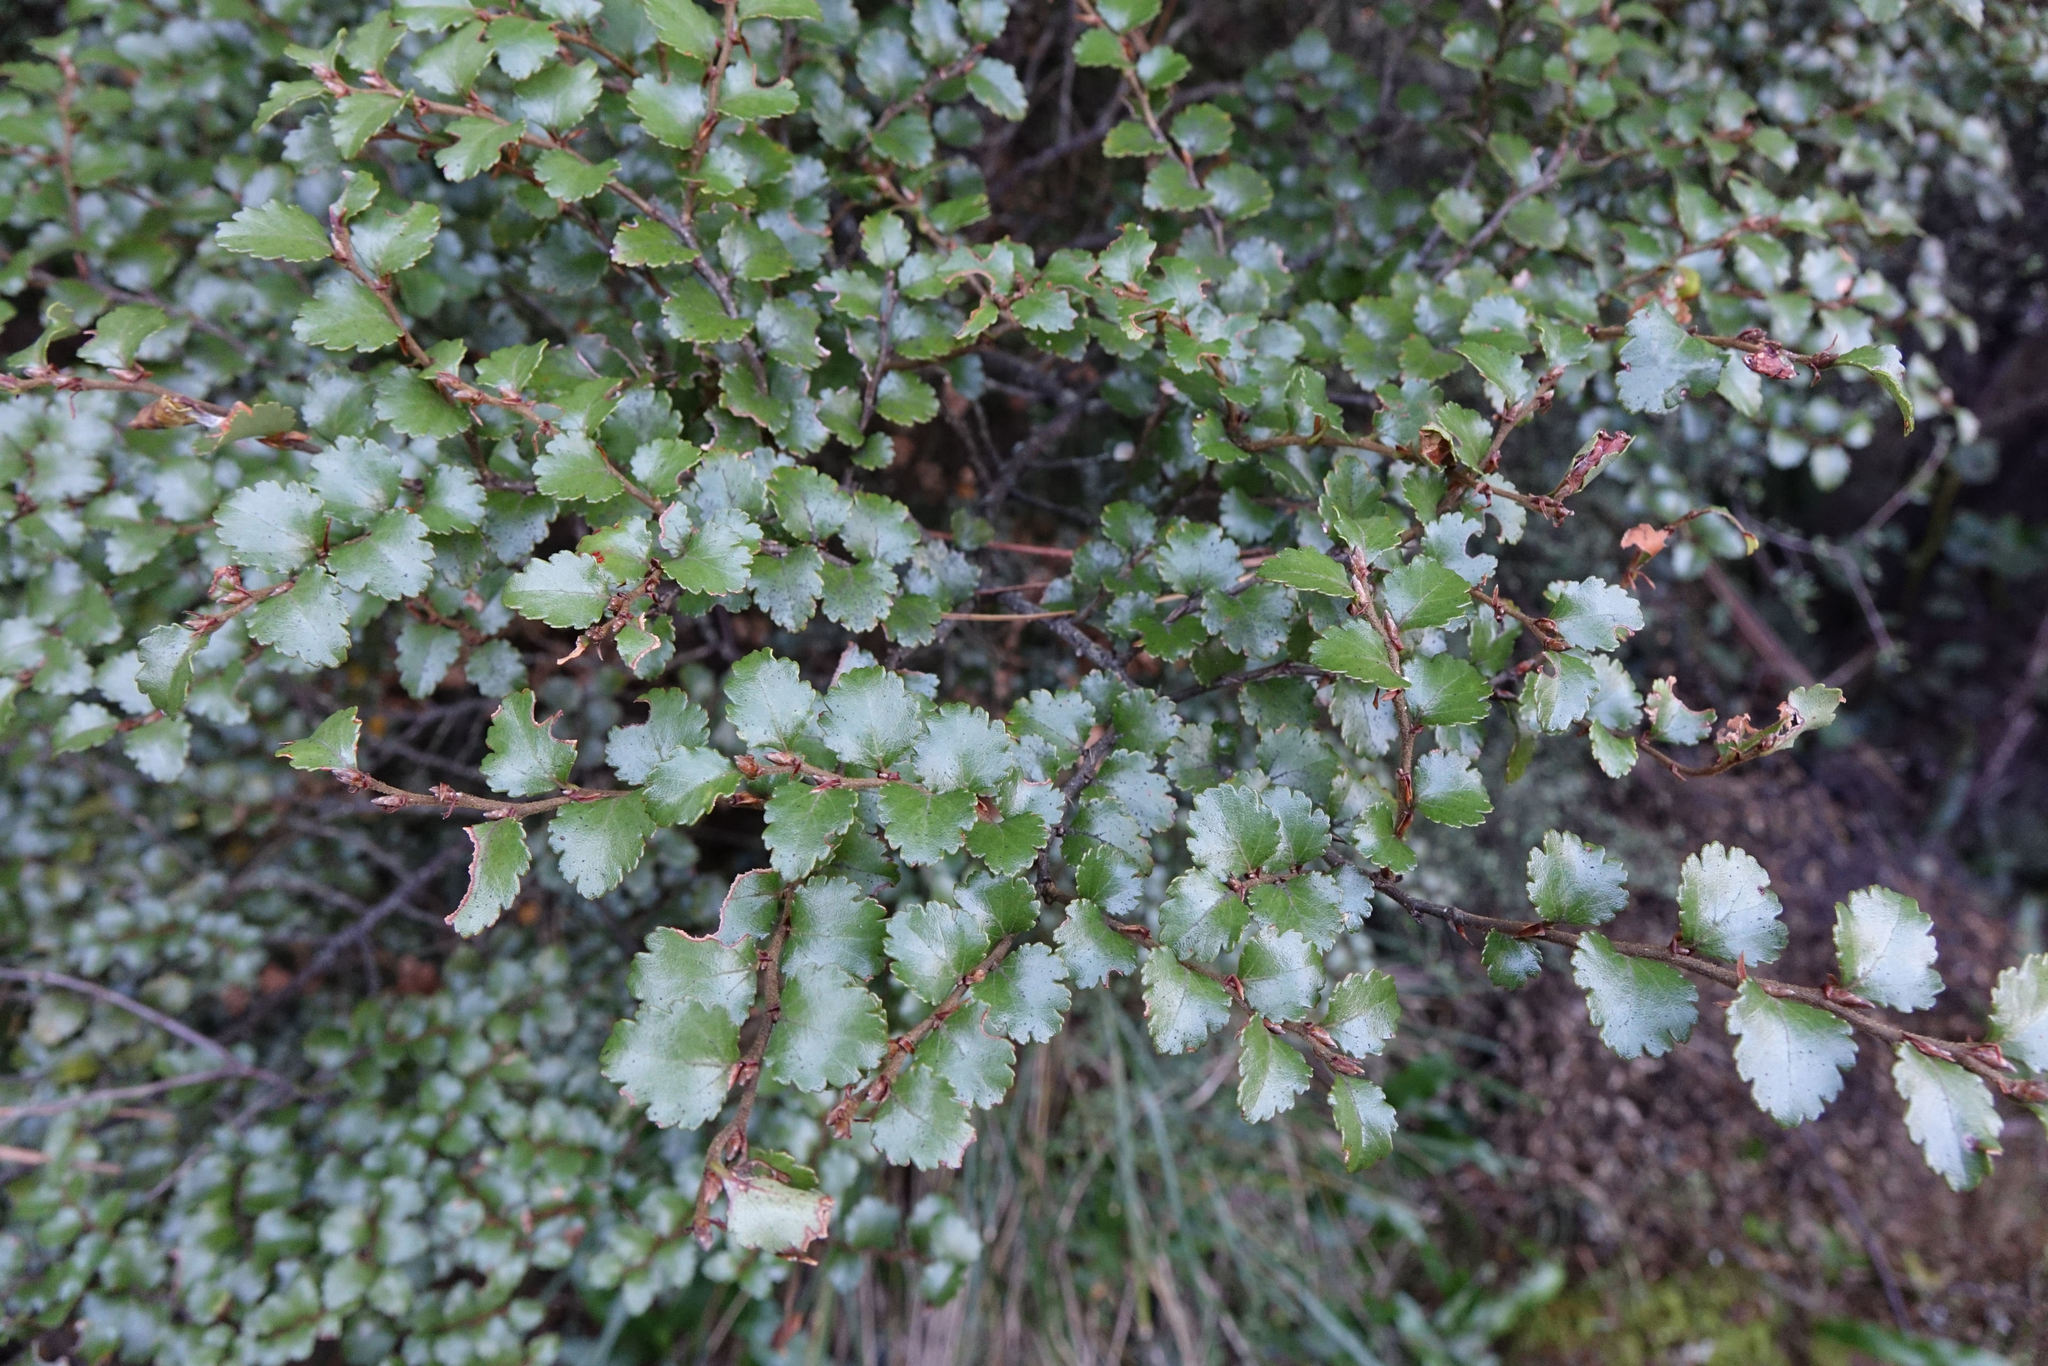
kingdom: Plantae
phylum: Tracheophyta
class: Magnoliopsida
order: Fagales
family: Nothofagaceae
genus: Nothofagus
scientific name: Nothofagus menziesii
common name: Silver beech
